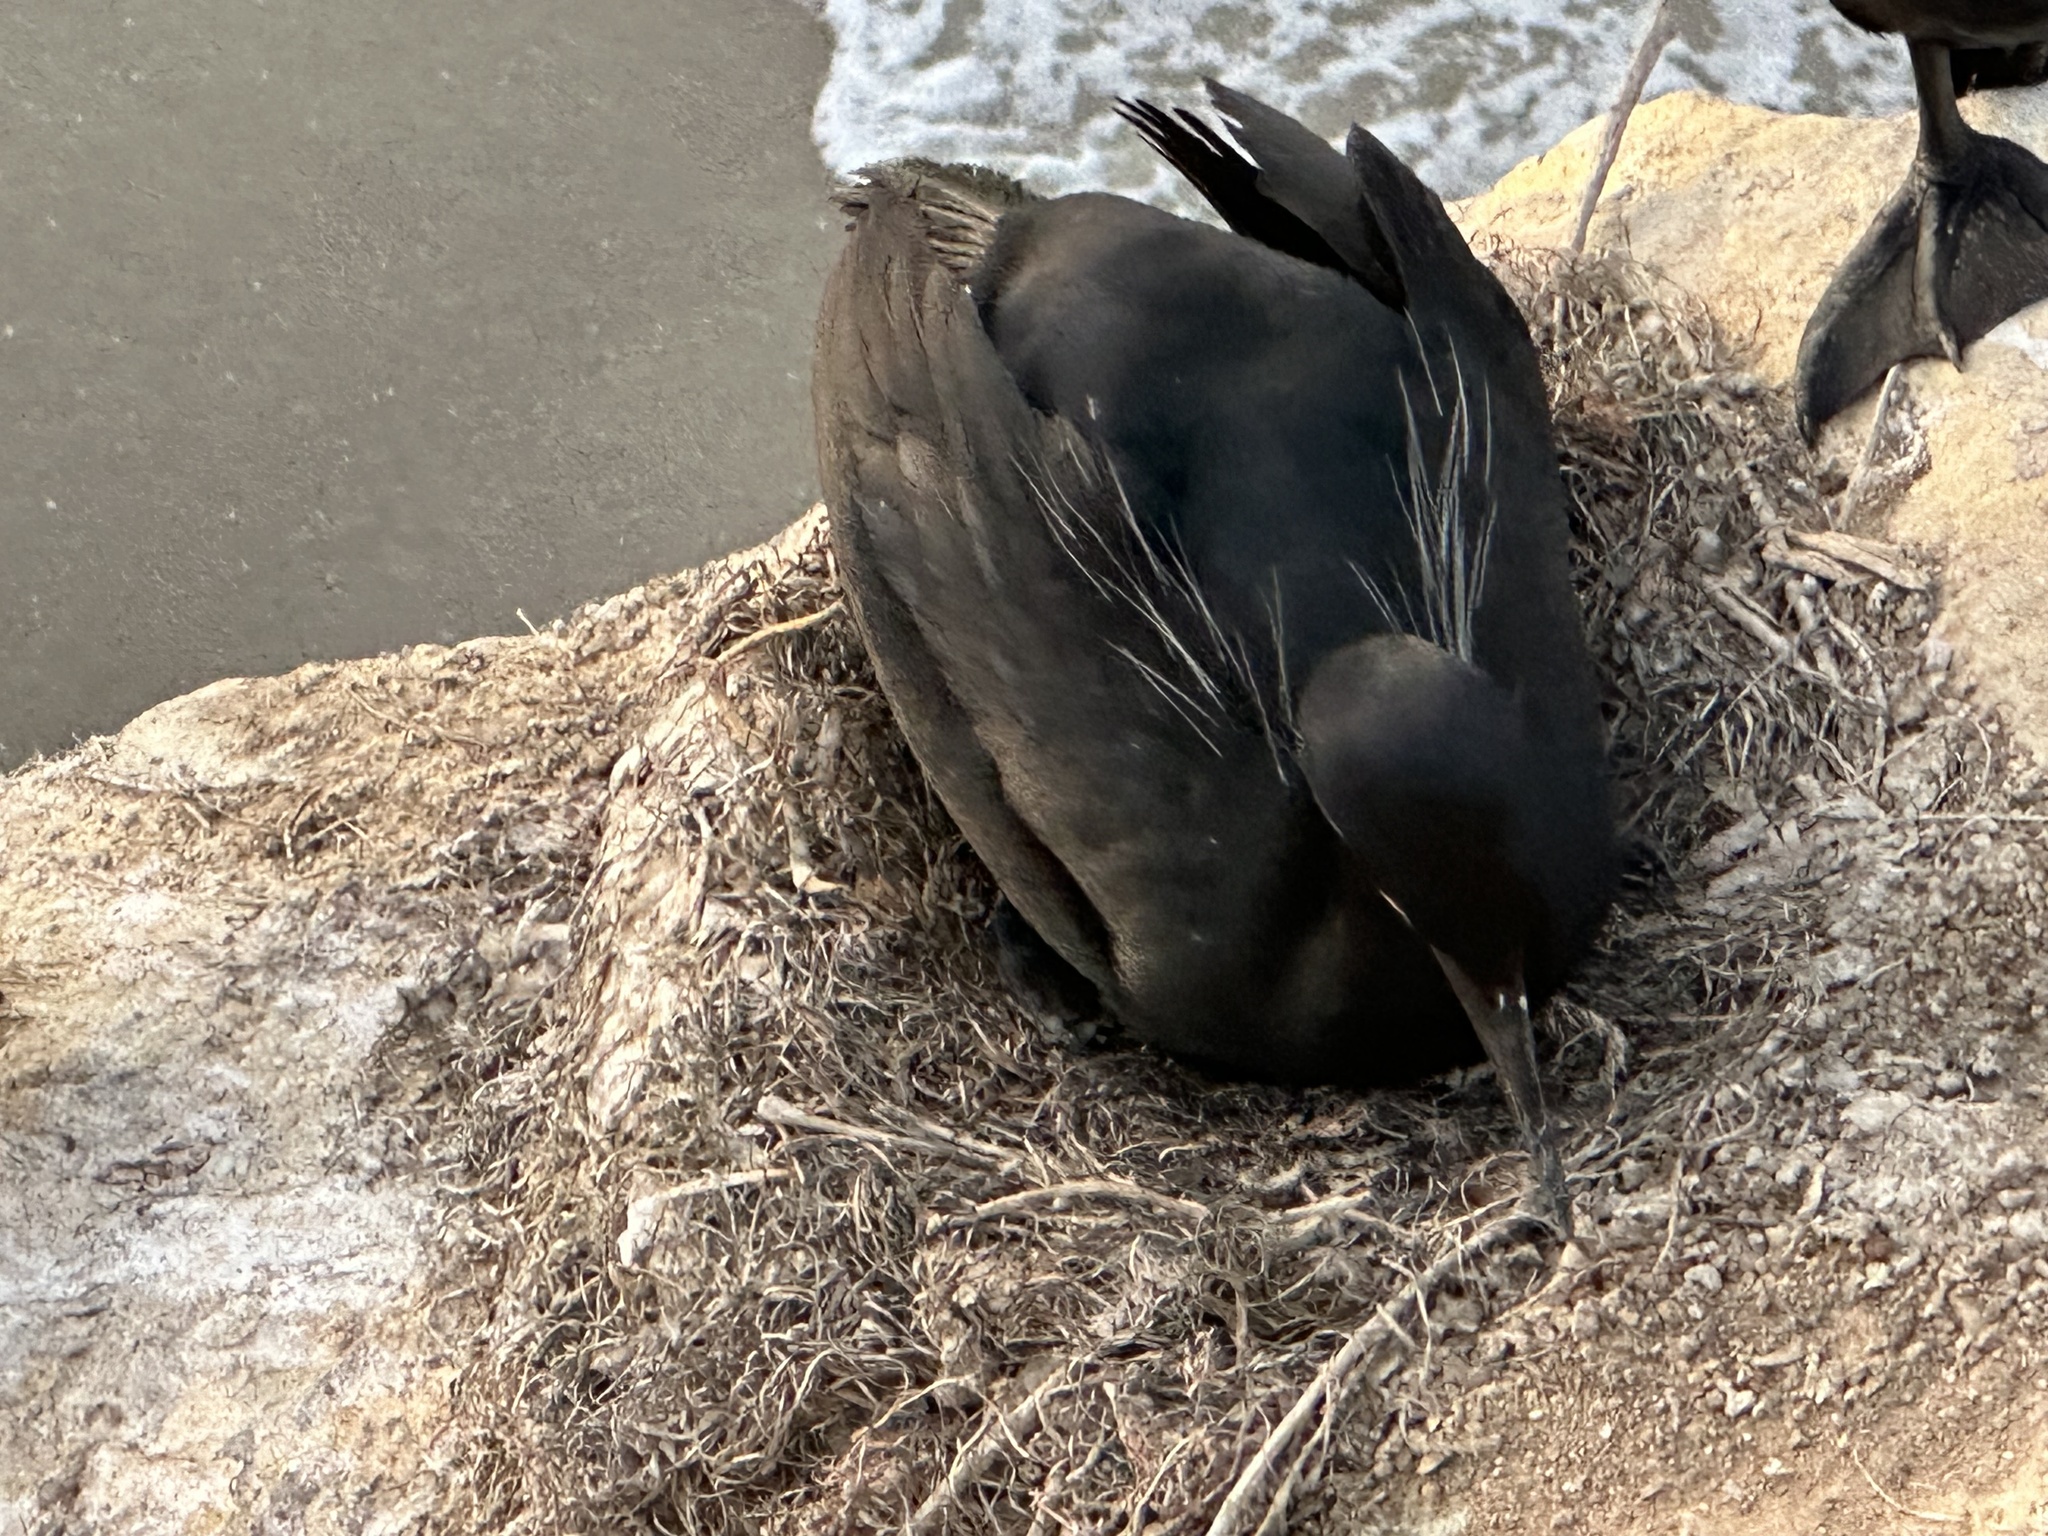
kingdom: Animalia
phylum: Chordata
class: Aves
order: Suliformes
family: Phalacrocoracidae
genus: Urile
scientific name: Urile penicillatus
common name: Brandt's cormorant
